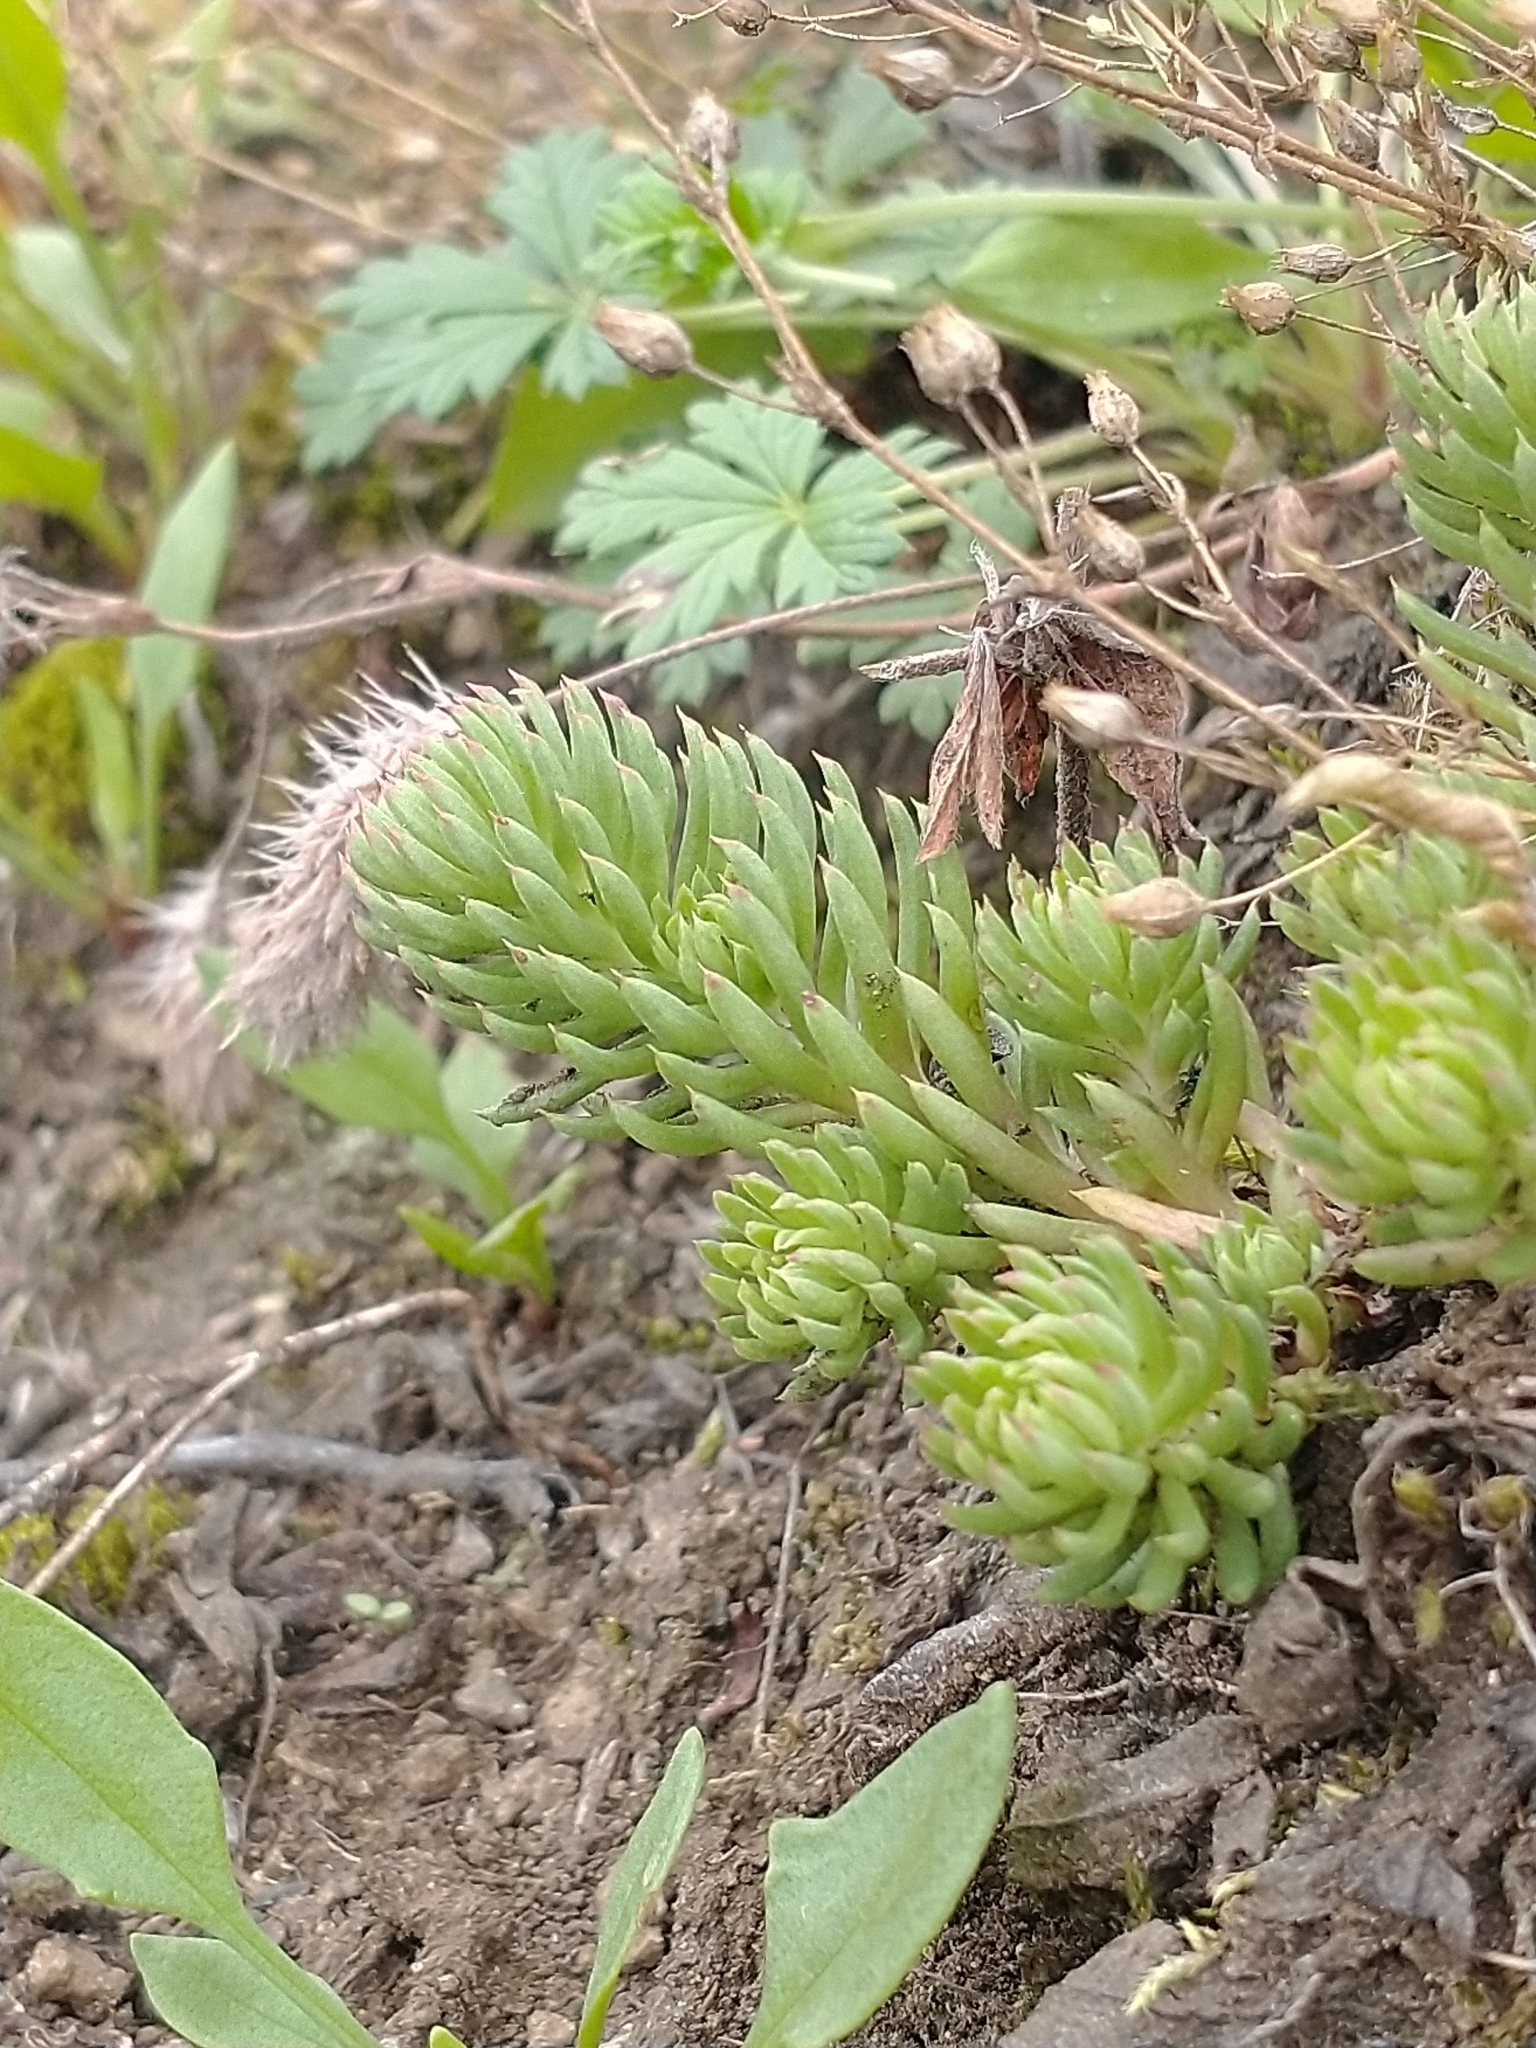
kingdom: Plantae
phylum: Tracheophyta
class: Magnoliopsida
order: Saxifragales
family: Crassulaceae
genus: Petrosedum
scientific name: Petrosedum forsterianum
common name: Forster's stonecrop
